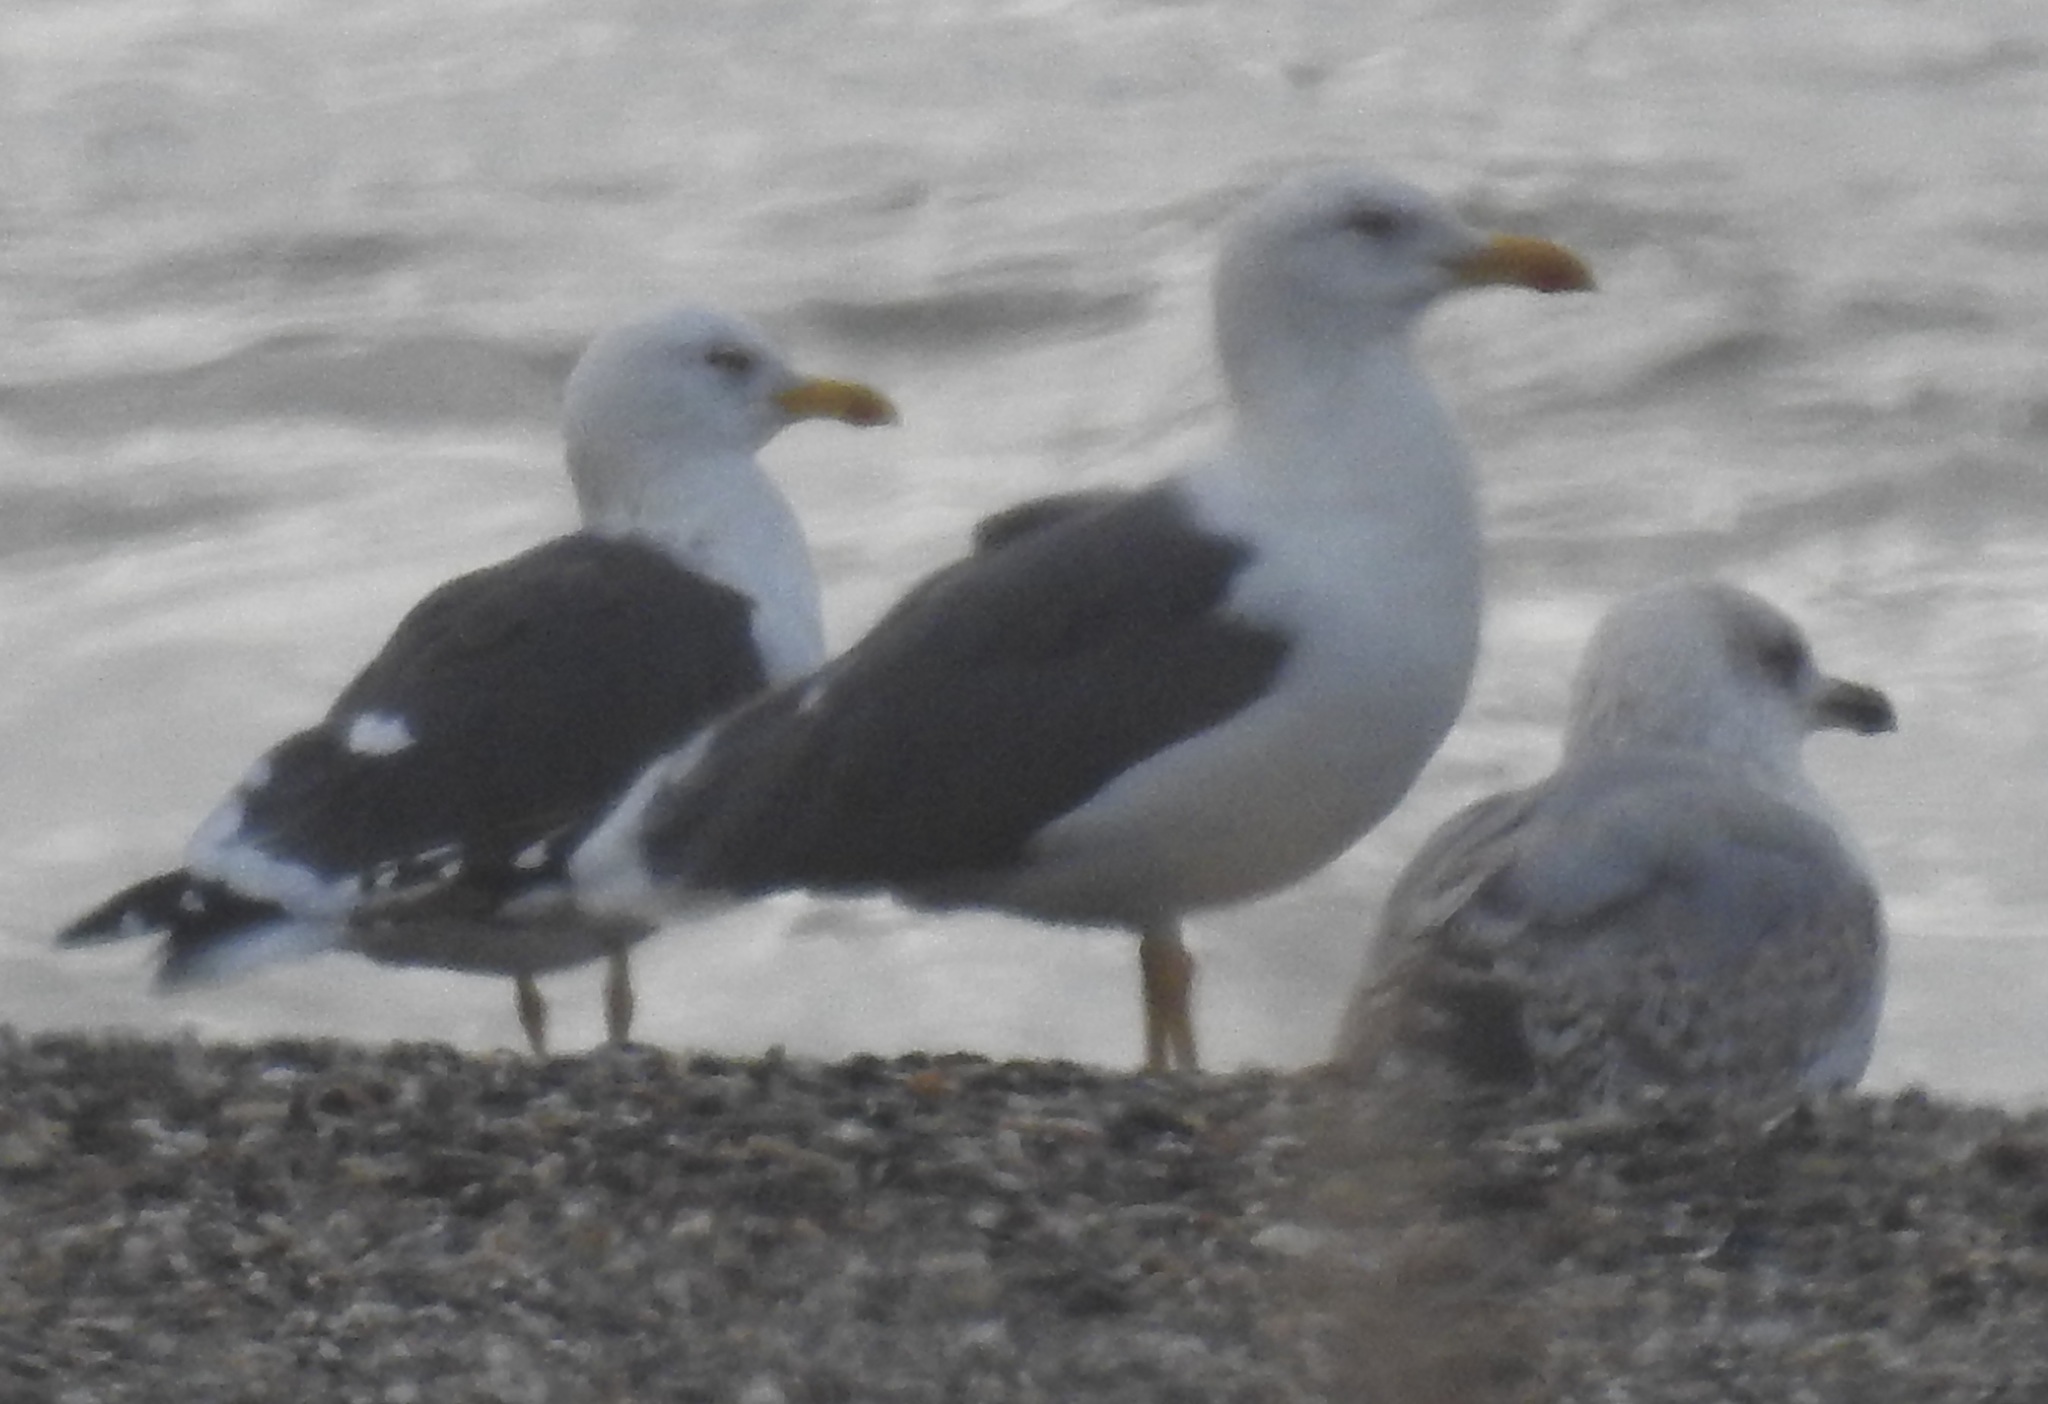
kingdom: Animalia
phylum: Chordata
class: Aves
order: Charadriiformes
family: Laridae
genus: Larus
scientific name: Larus fuscus
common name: Lesser black-backed gull
